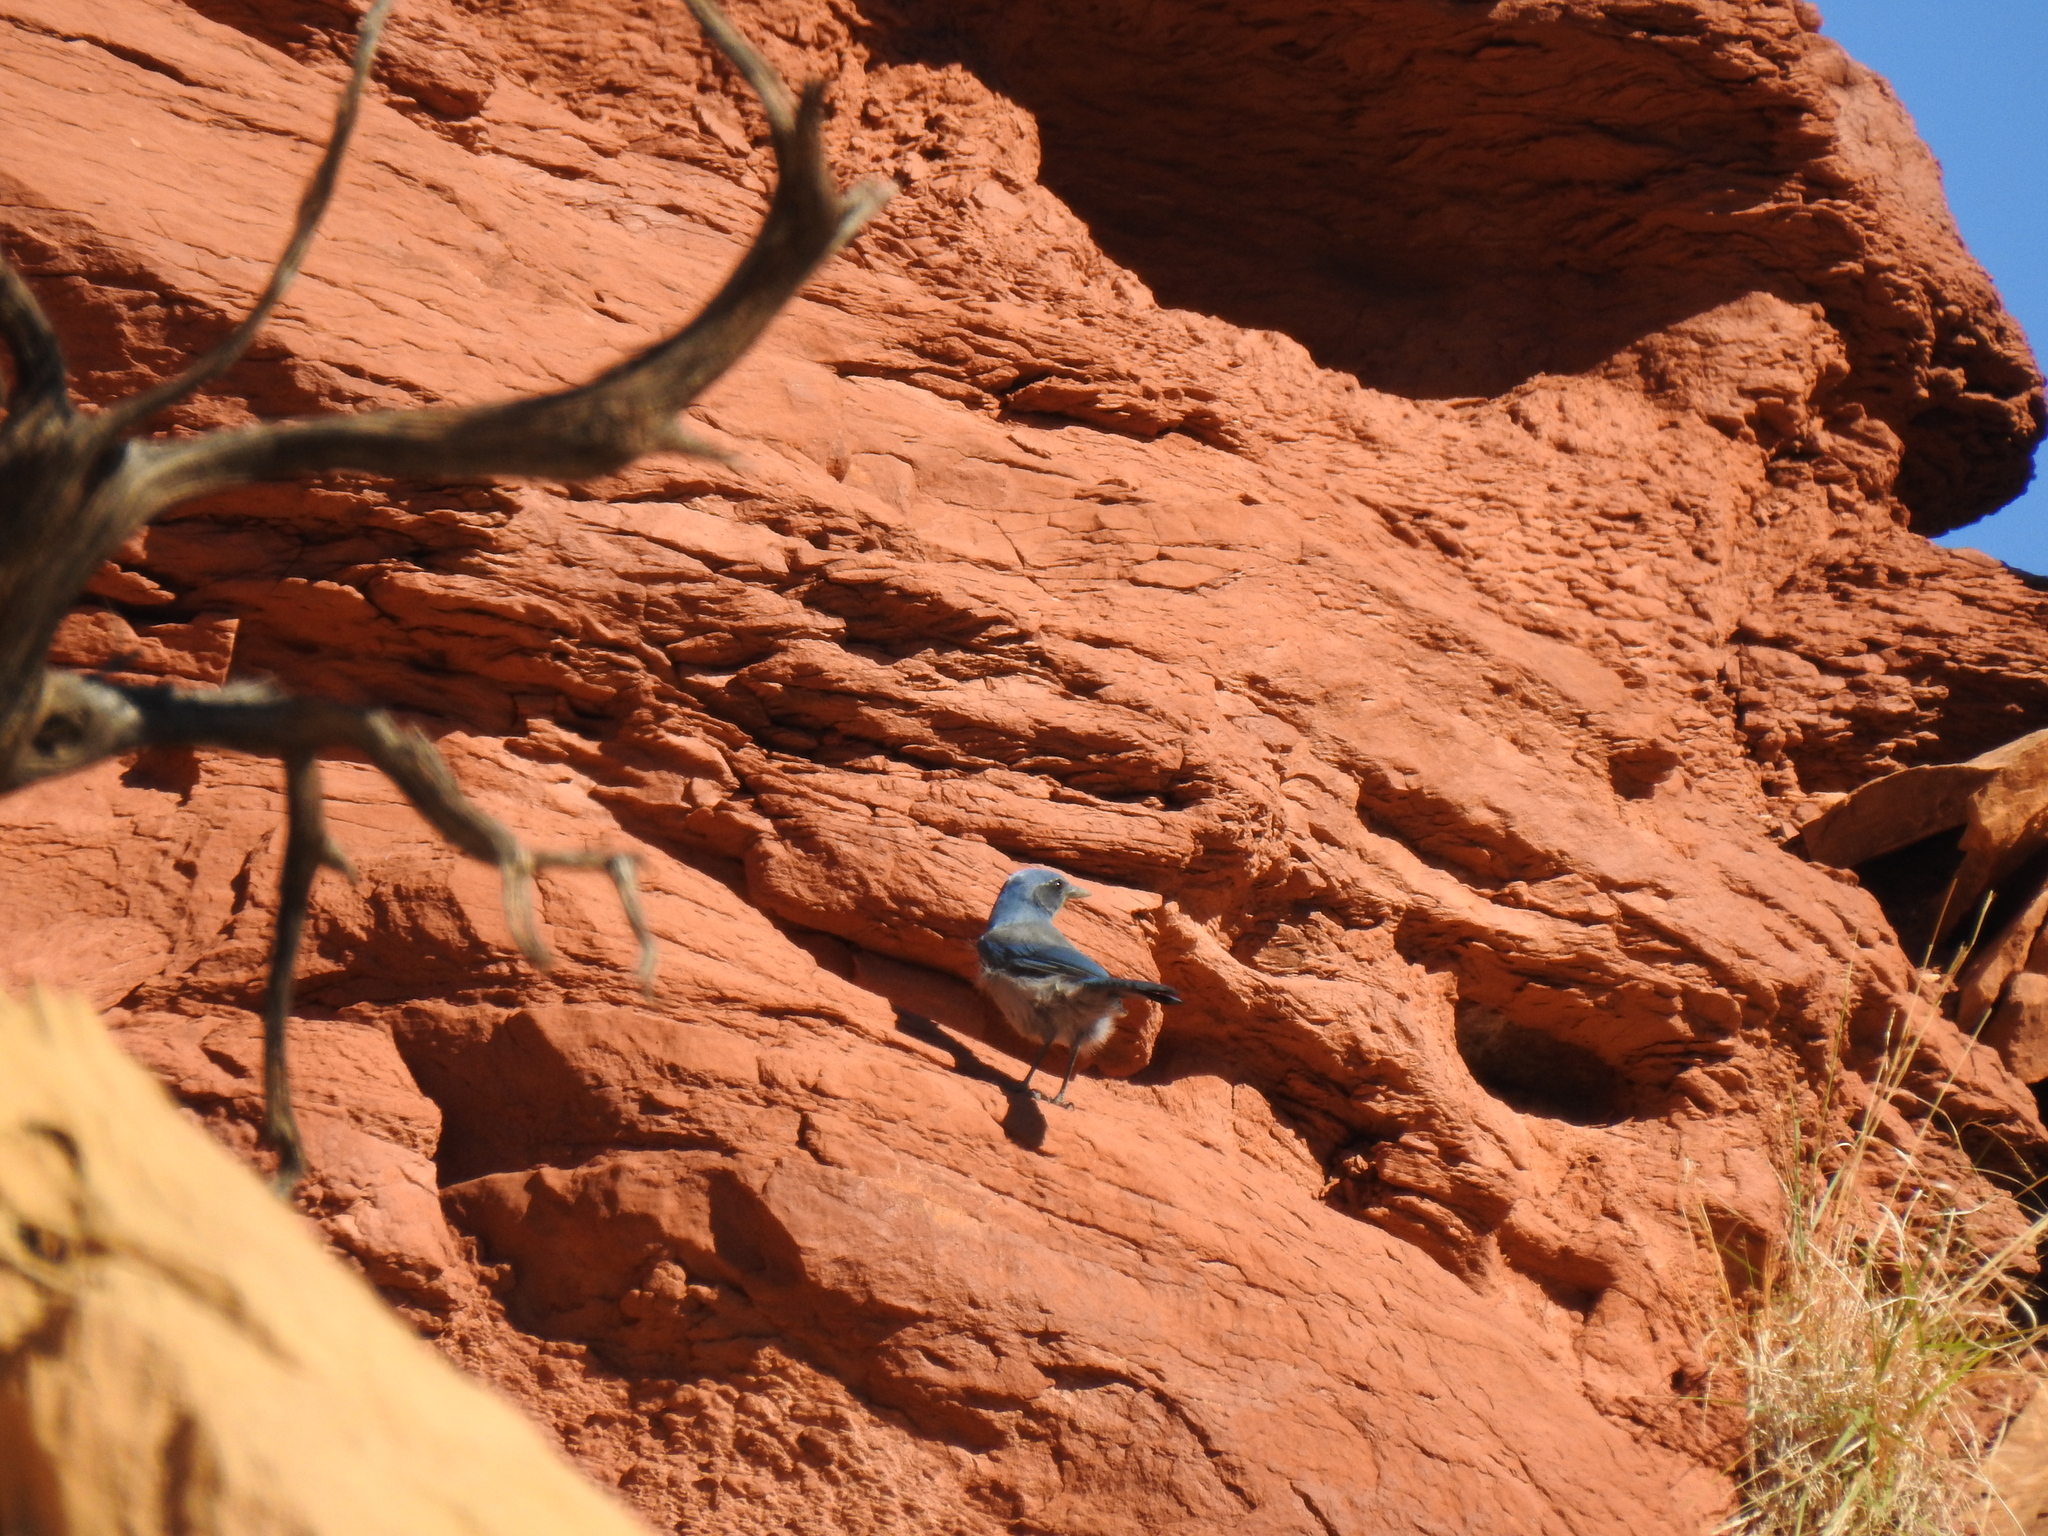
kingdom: Animalia
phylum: Chordata
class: Aves
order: Passeriformes
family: Corvidae
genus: Aphelocoma
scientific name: Aphelocoma woodhouseii
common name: Woodhouse's scrub-jay
